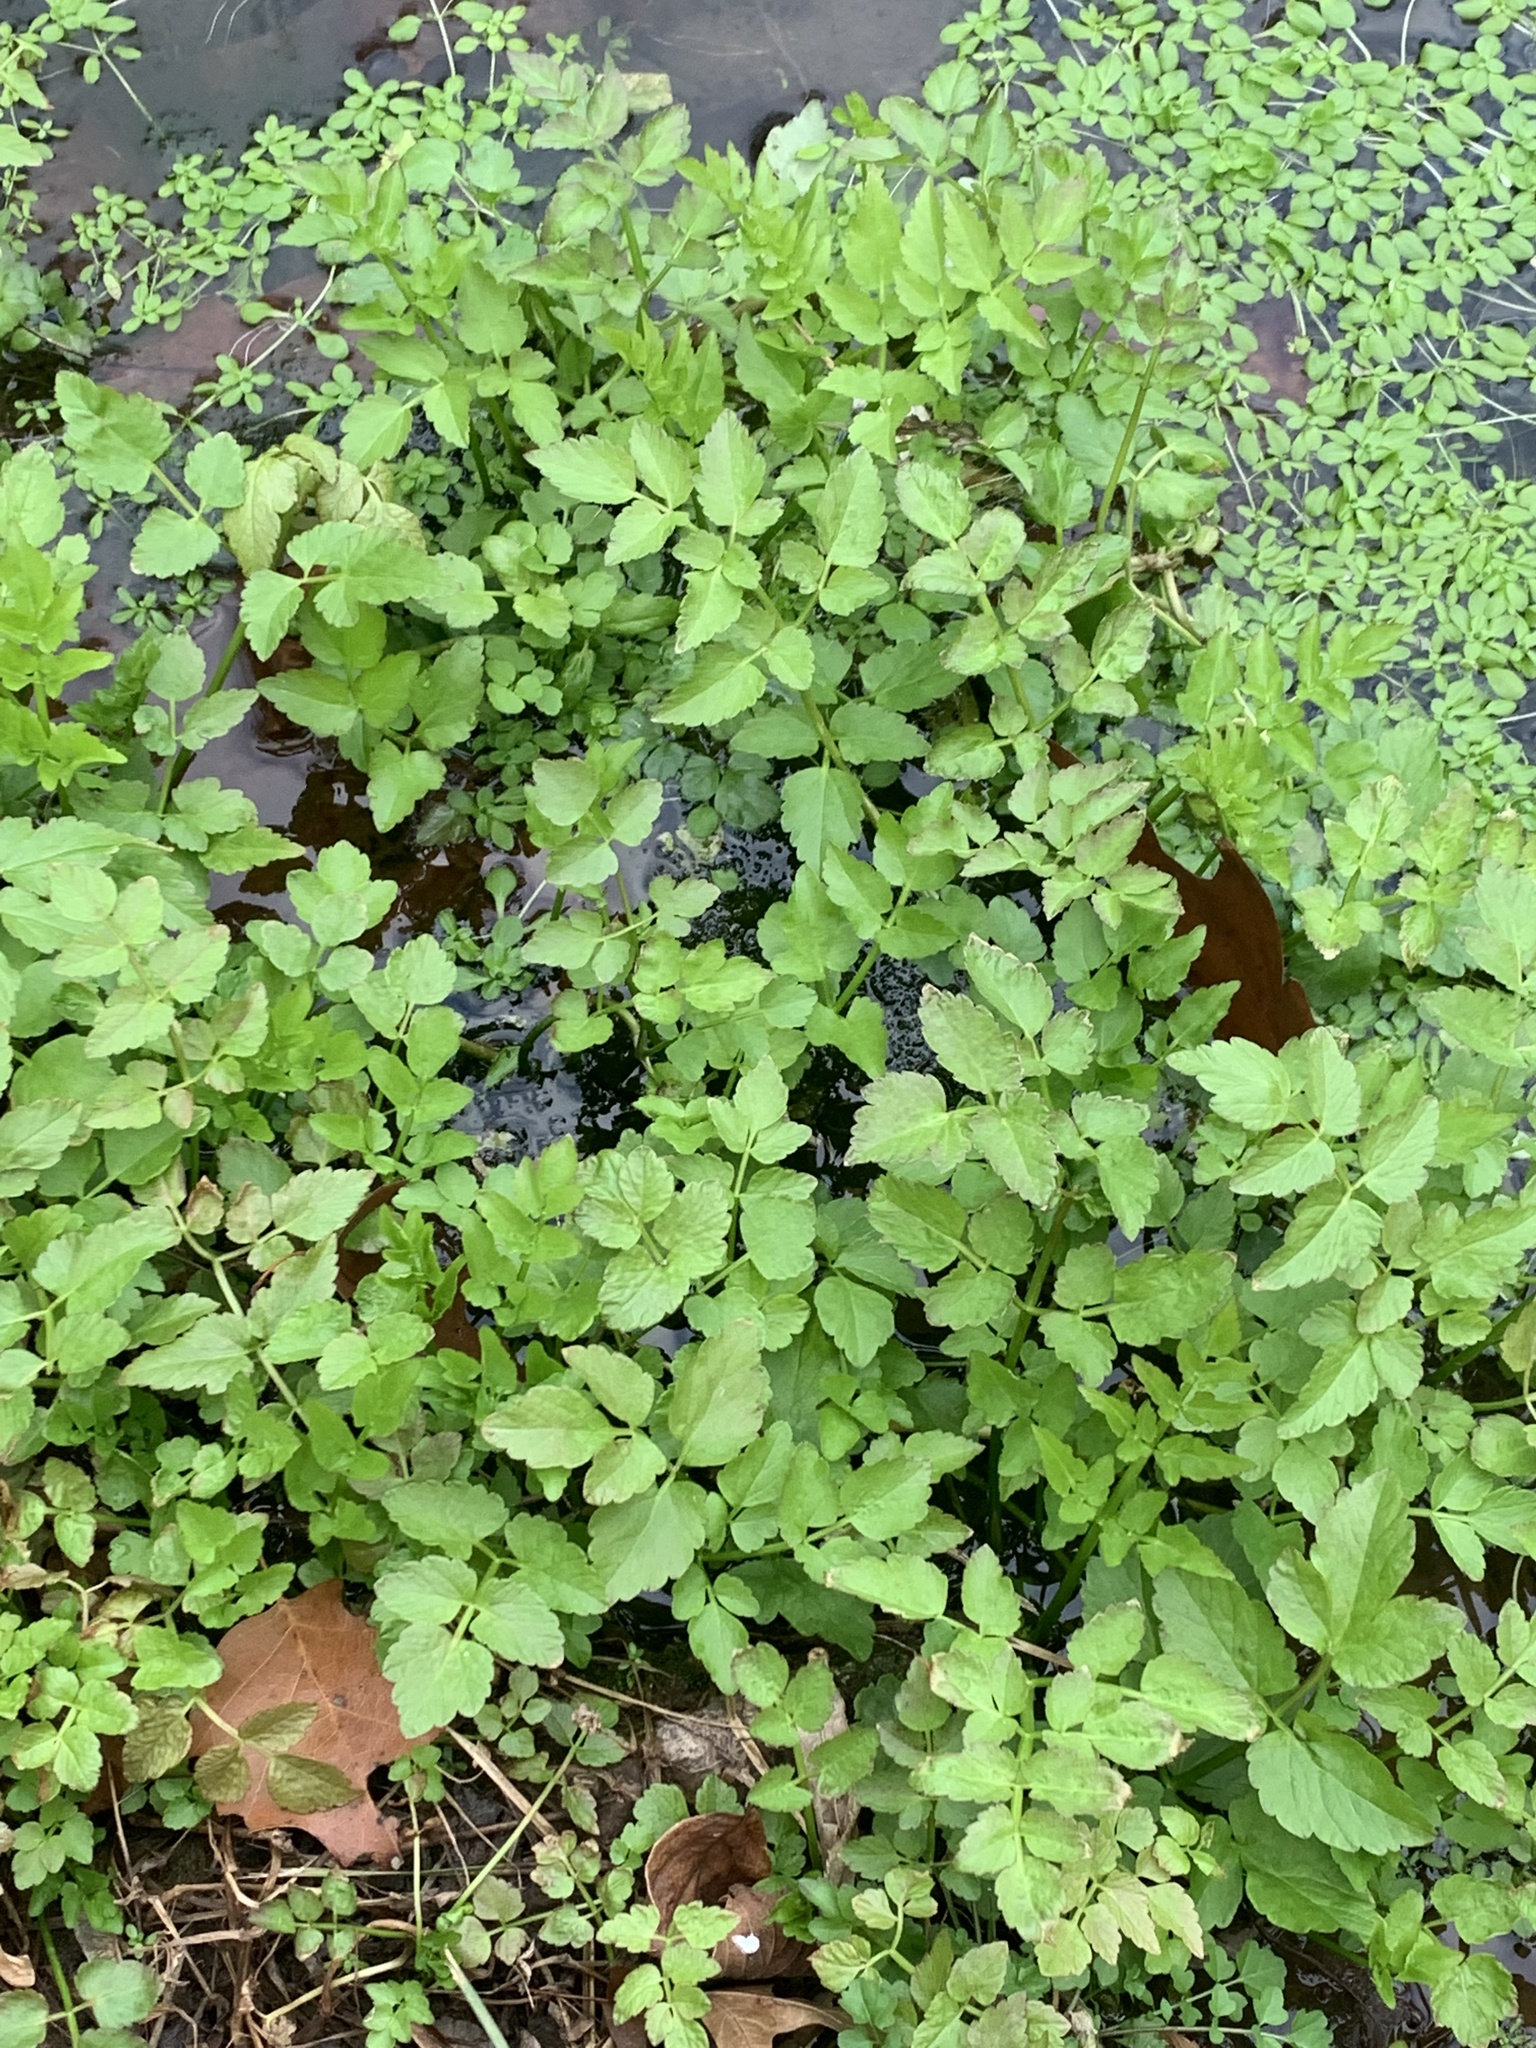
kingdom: Plantae
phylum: Tracheophyta
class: Magnoliopsida
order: Apiales
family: Apiaceae
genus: Oenanthe
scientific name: Oenanthe javanica
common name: Java water-dropwort
